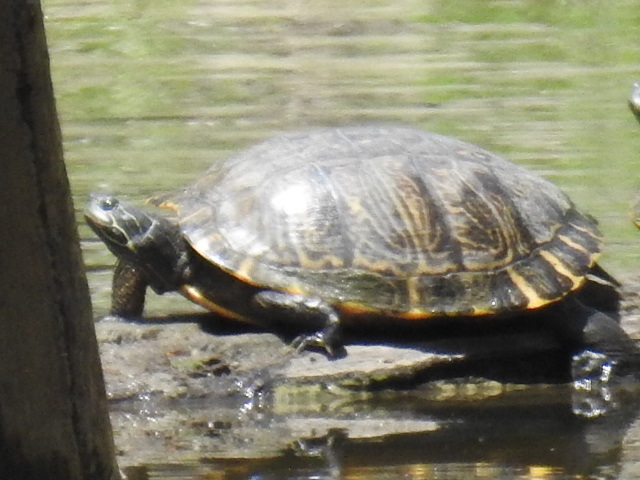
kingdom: Animalia
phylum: Chordata
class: Testudines
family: Emydidae
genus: Pseudemys
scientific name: Pseudemys concinna
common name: Eastern river cooter
